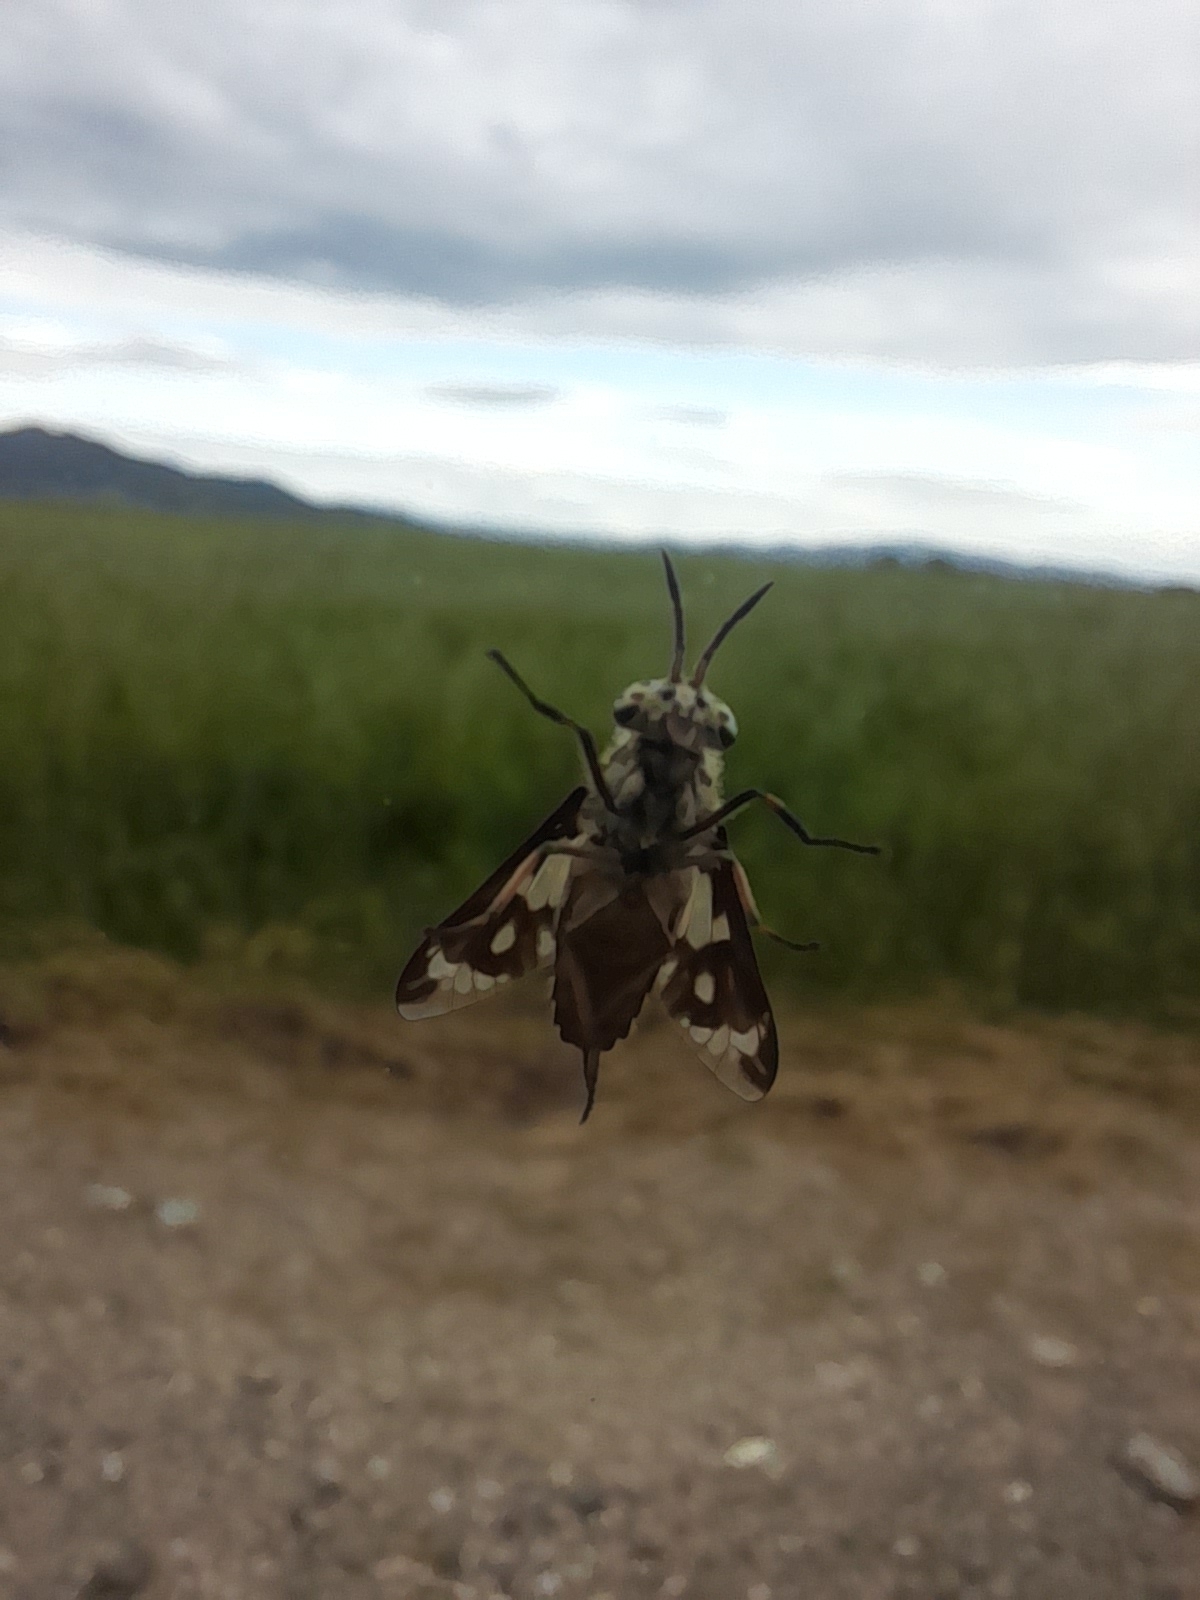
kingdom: Animalia
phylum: Arthropoda
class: Insecta
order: Diptera
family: Tabanidae
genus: Chrysops
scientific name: Chrysops italicus
